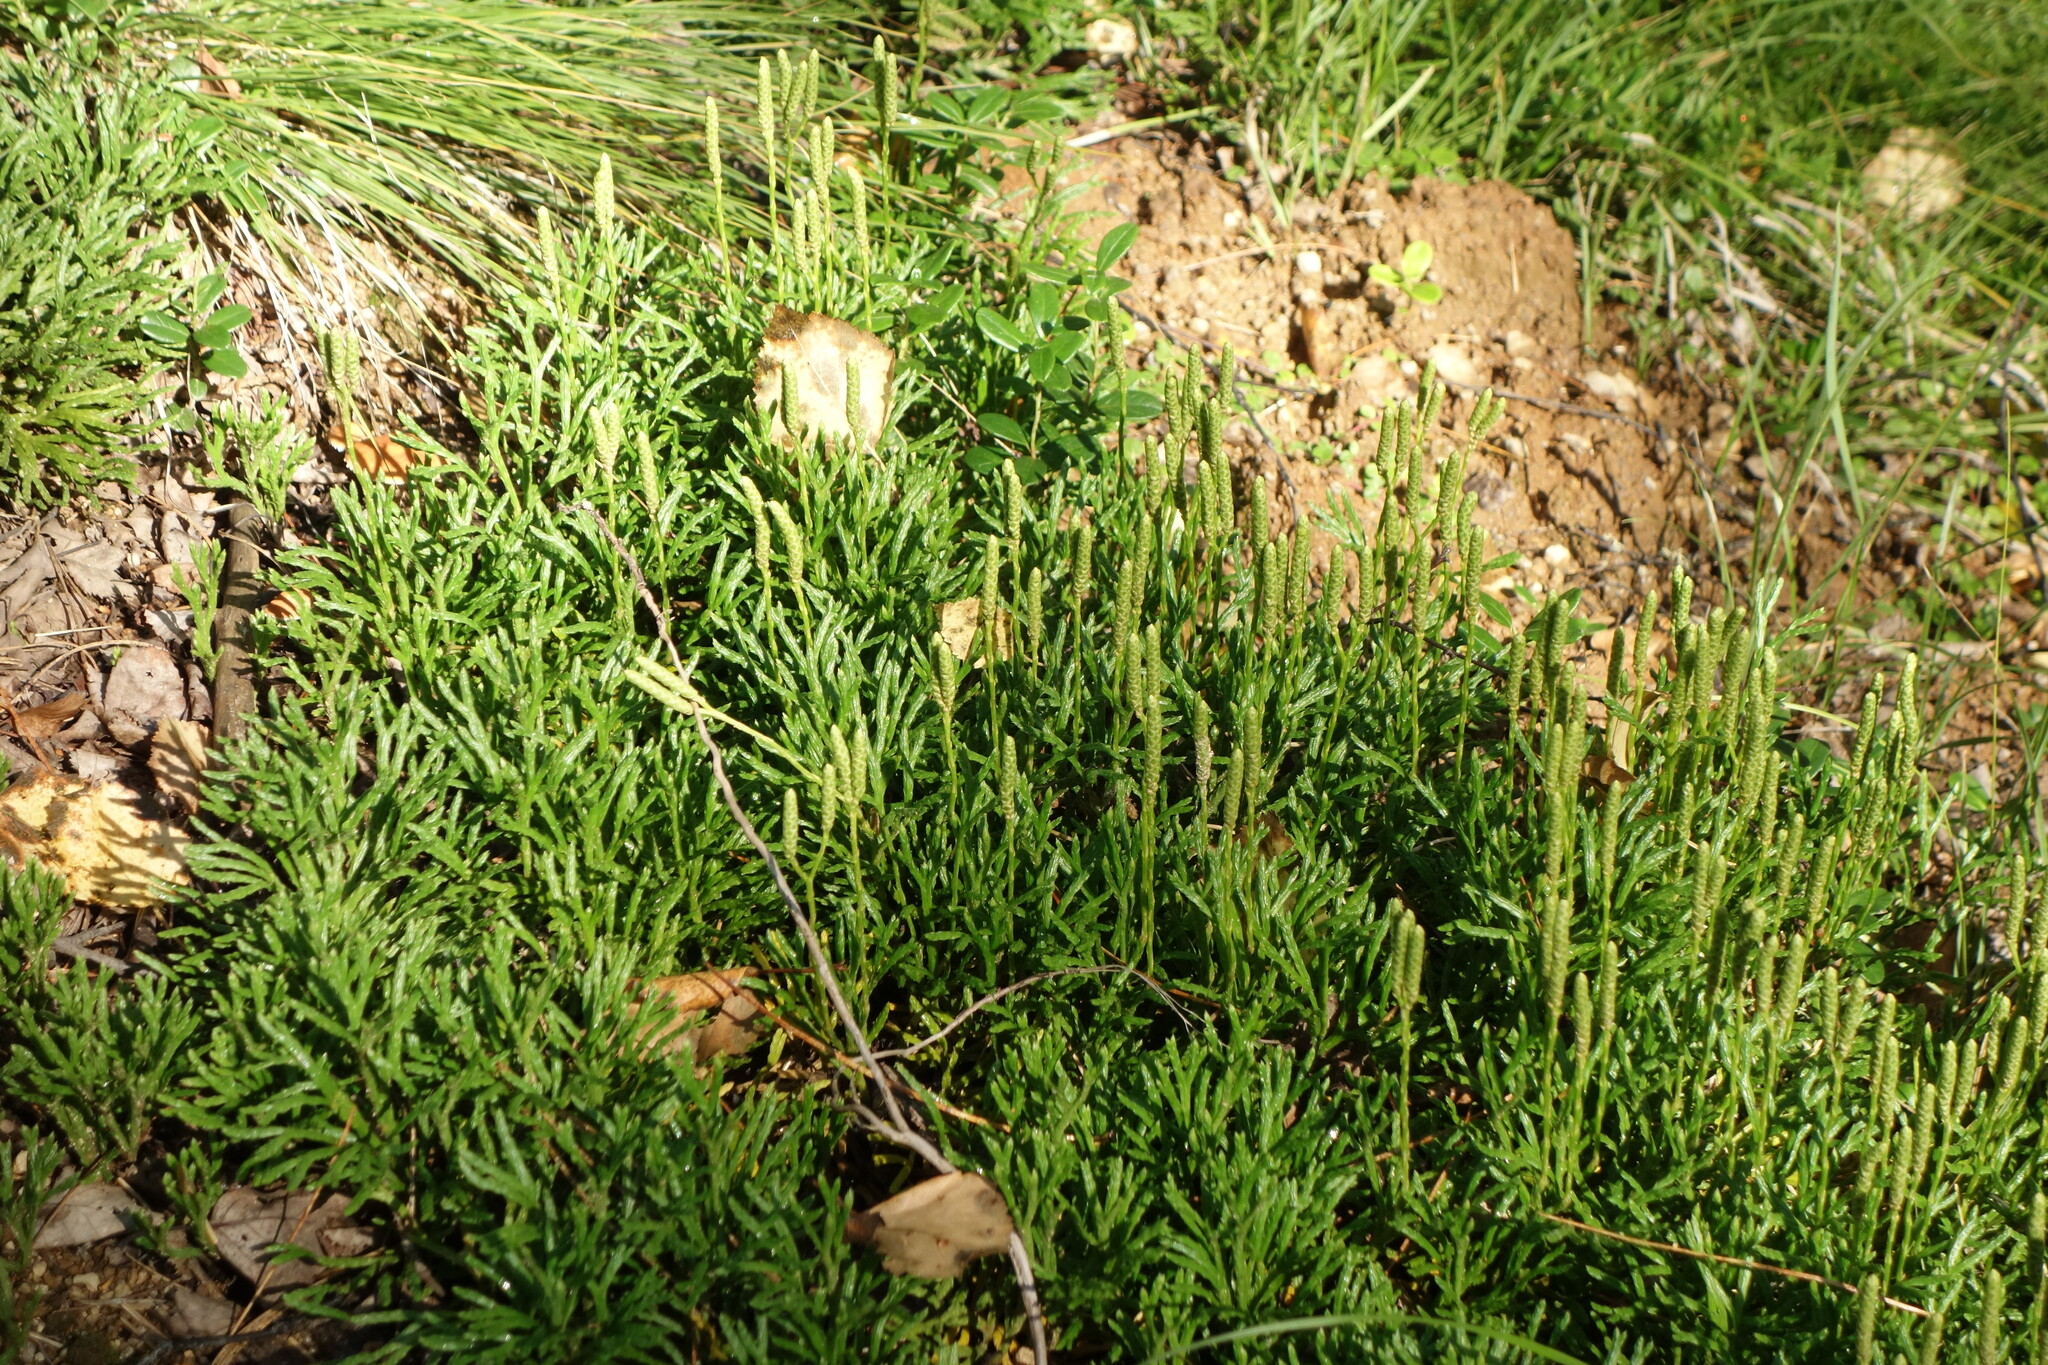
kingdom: Plantae
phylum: Tracheophyta
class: Lycopodiopsida
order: Lycopodiales
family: Lycopodiaceae
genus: Diphasiastrum
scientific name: Diphasiastrum complanatum
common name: Northern running-pine
